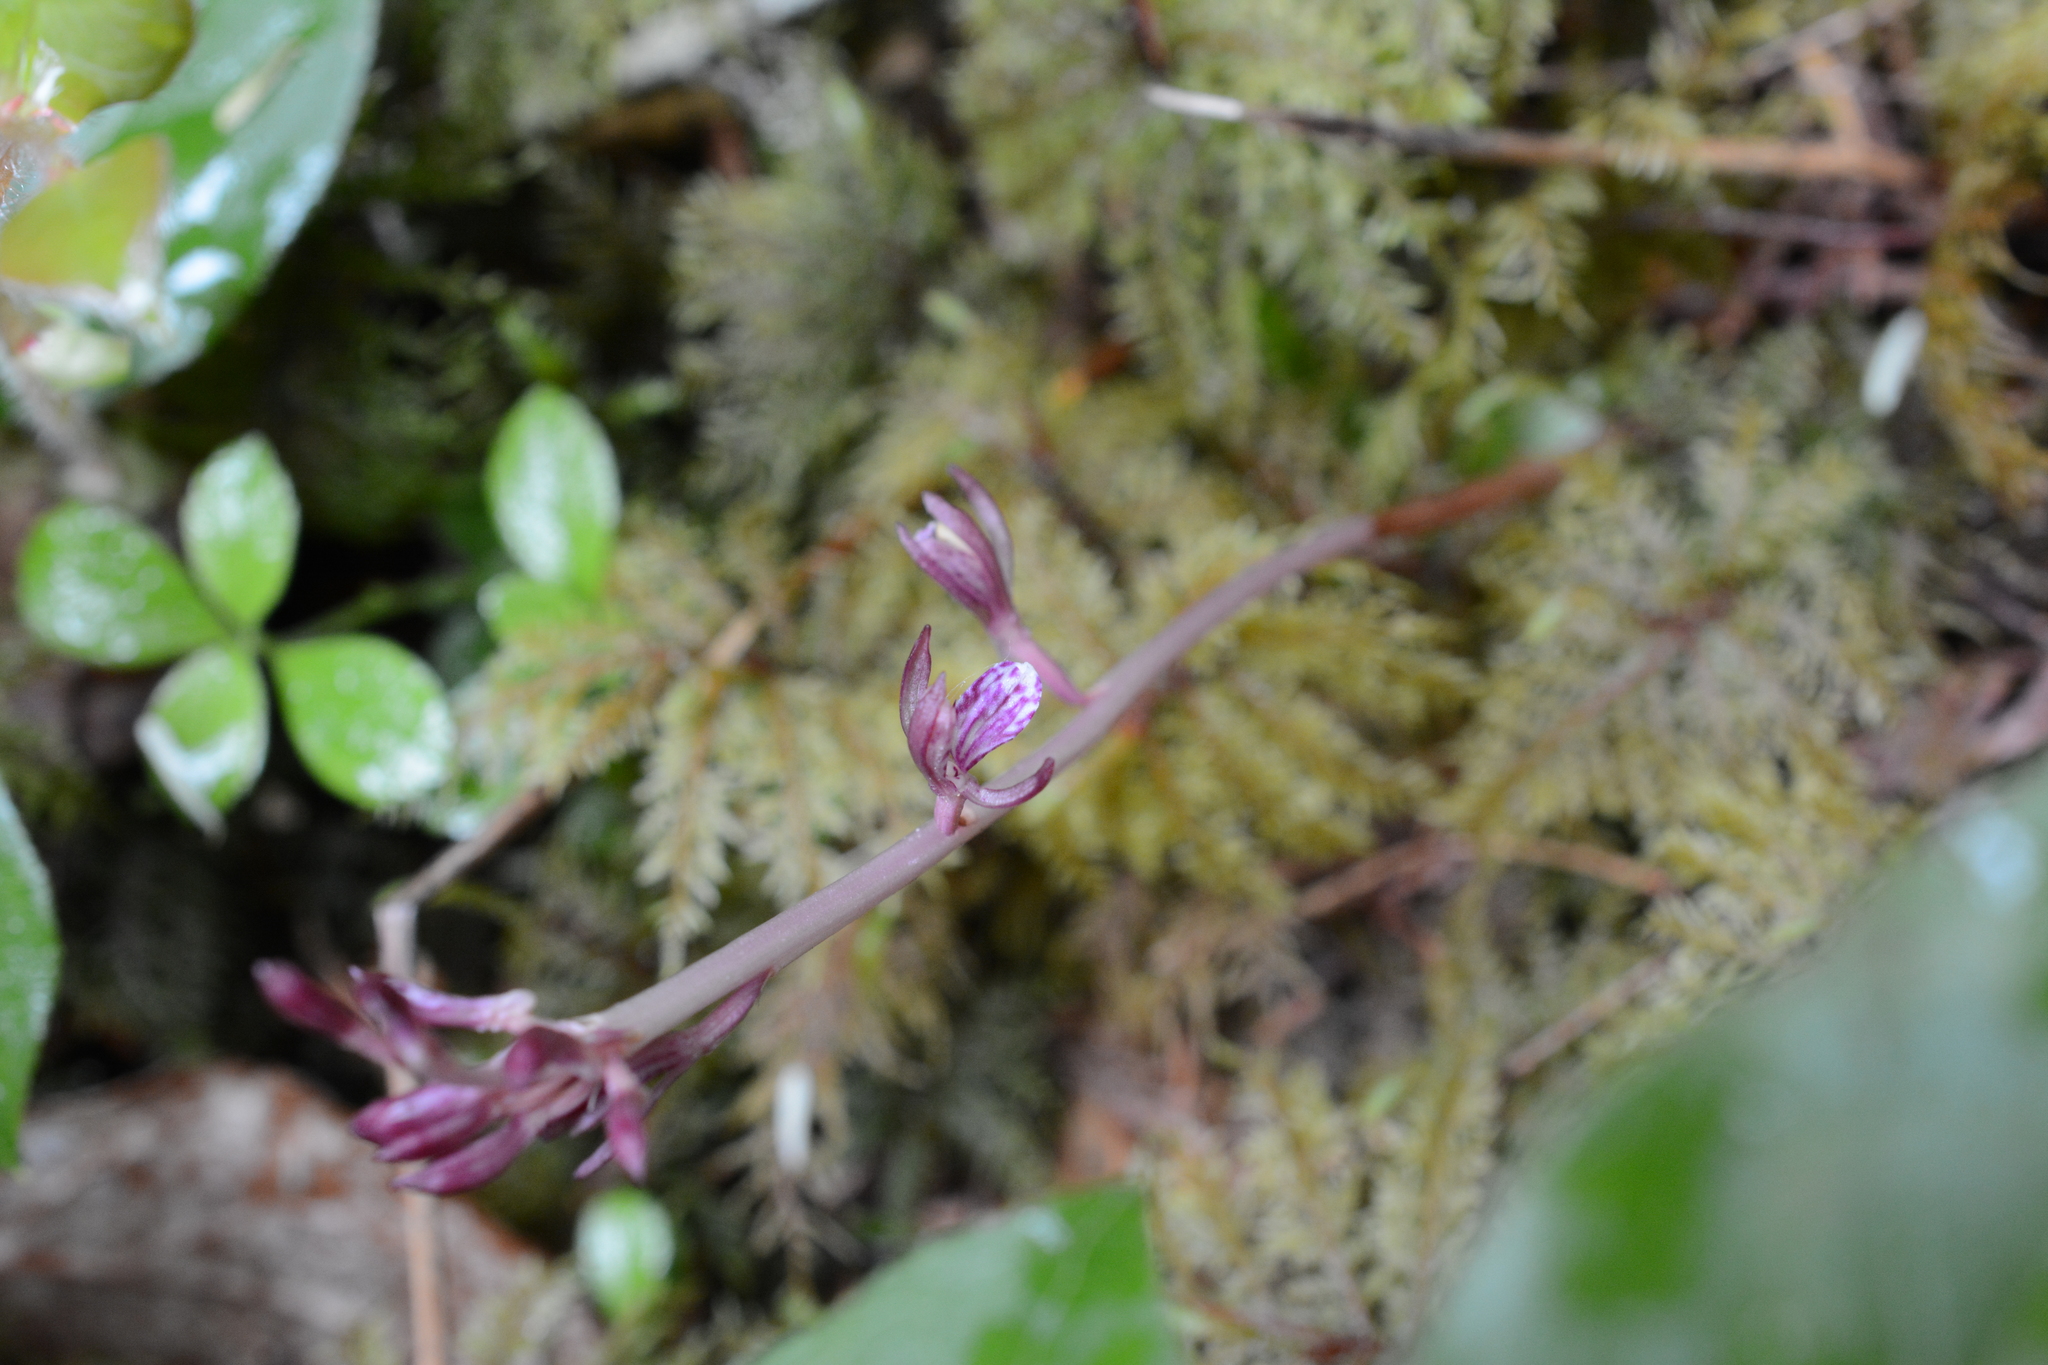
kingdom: Plantae
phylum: Tracheophyta
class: Liliopsida
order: Asparagales
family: Orchidaceae
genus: Corallorhiza
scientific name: Corallorhiza mertensiana
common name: Pacific coralroot
